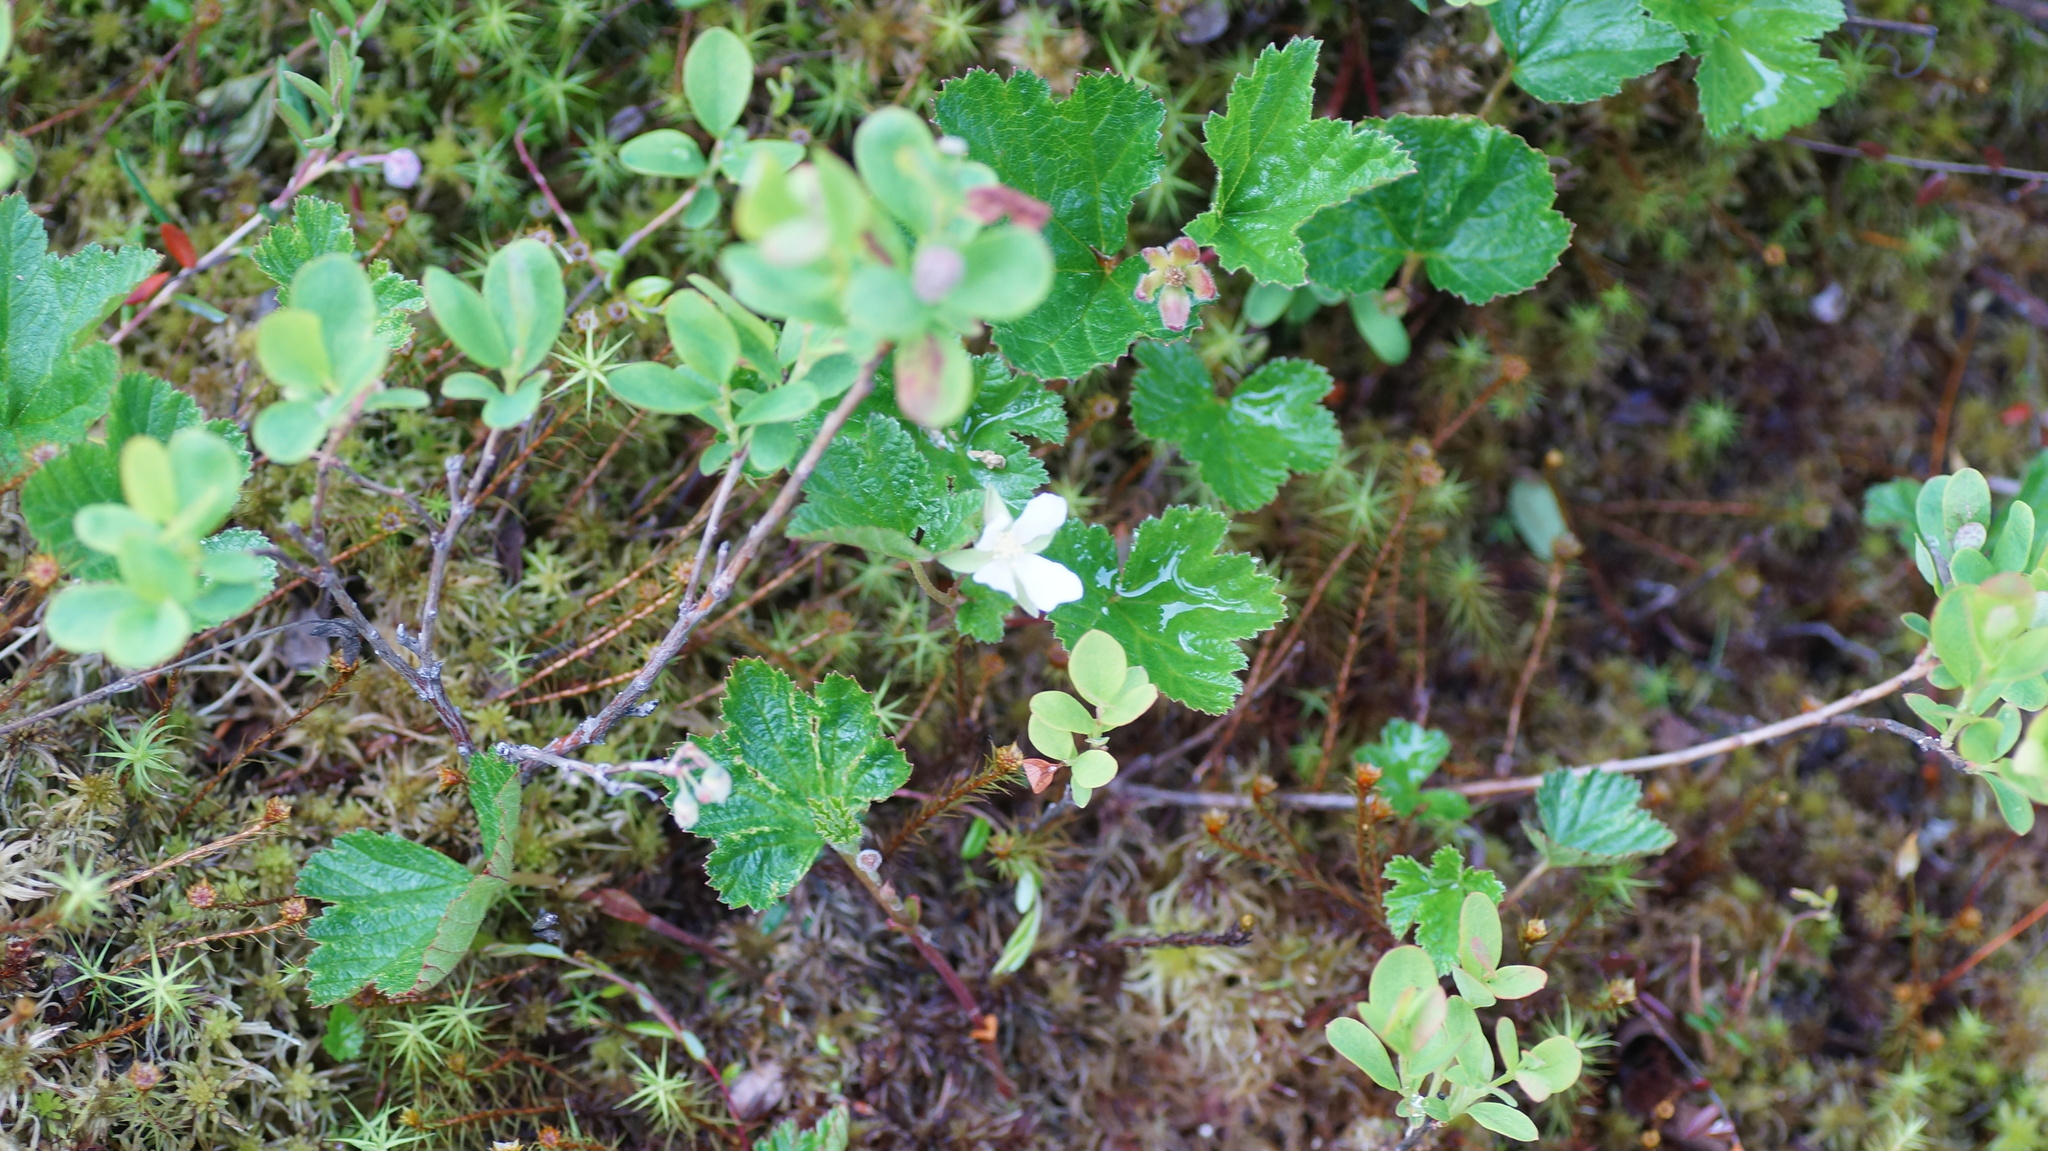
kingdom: Plantae
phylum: Tracheophyta
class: Magnoliopsida
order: Rosales
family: Rosaceae
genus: Rubus
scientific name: Rubus chamaemorus
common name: Cloudberry
